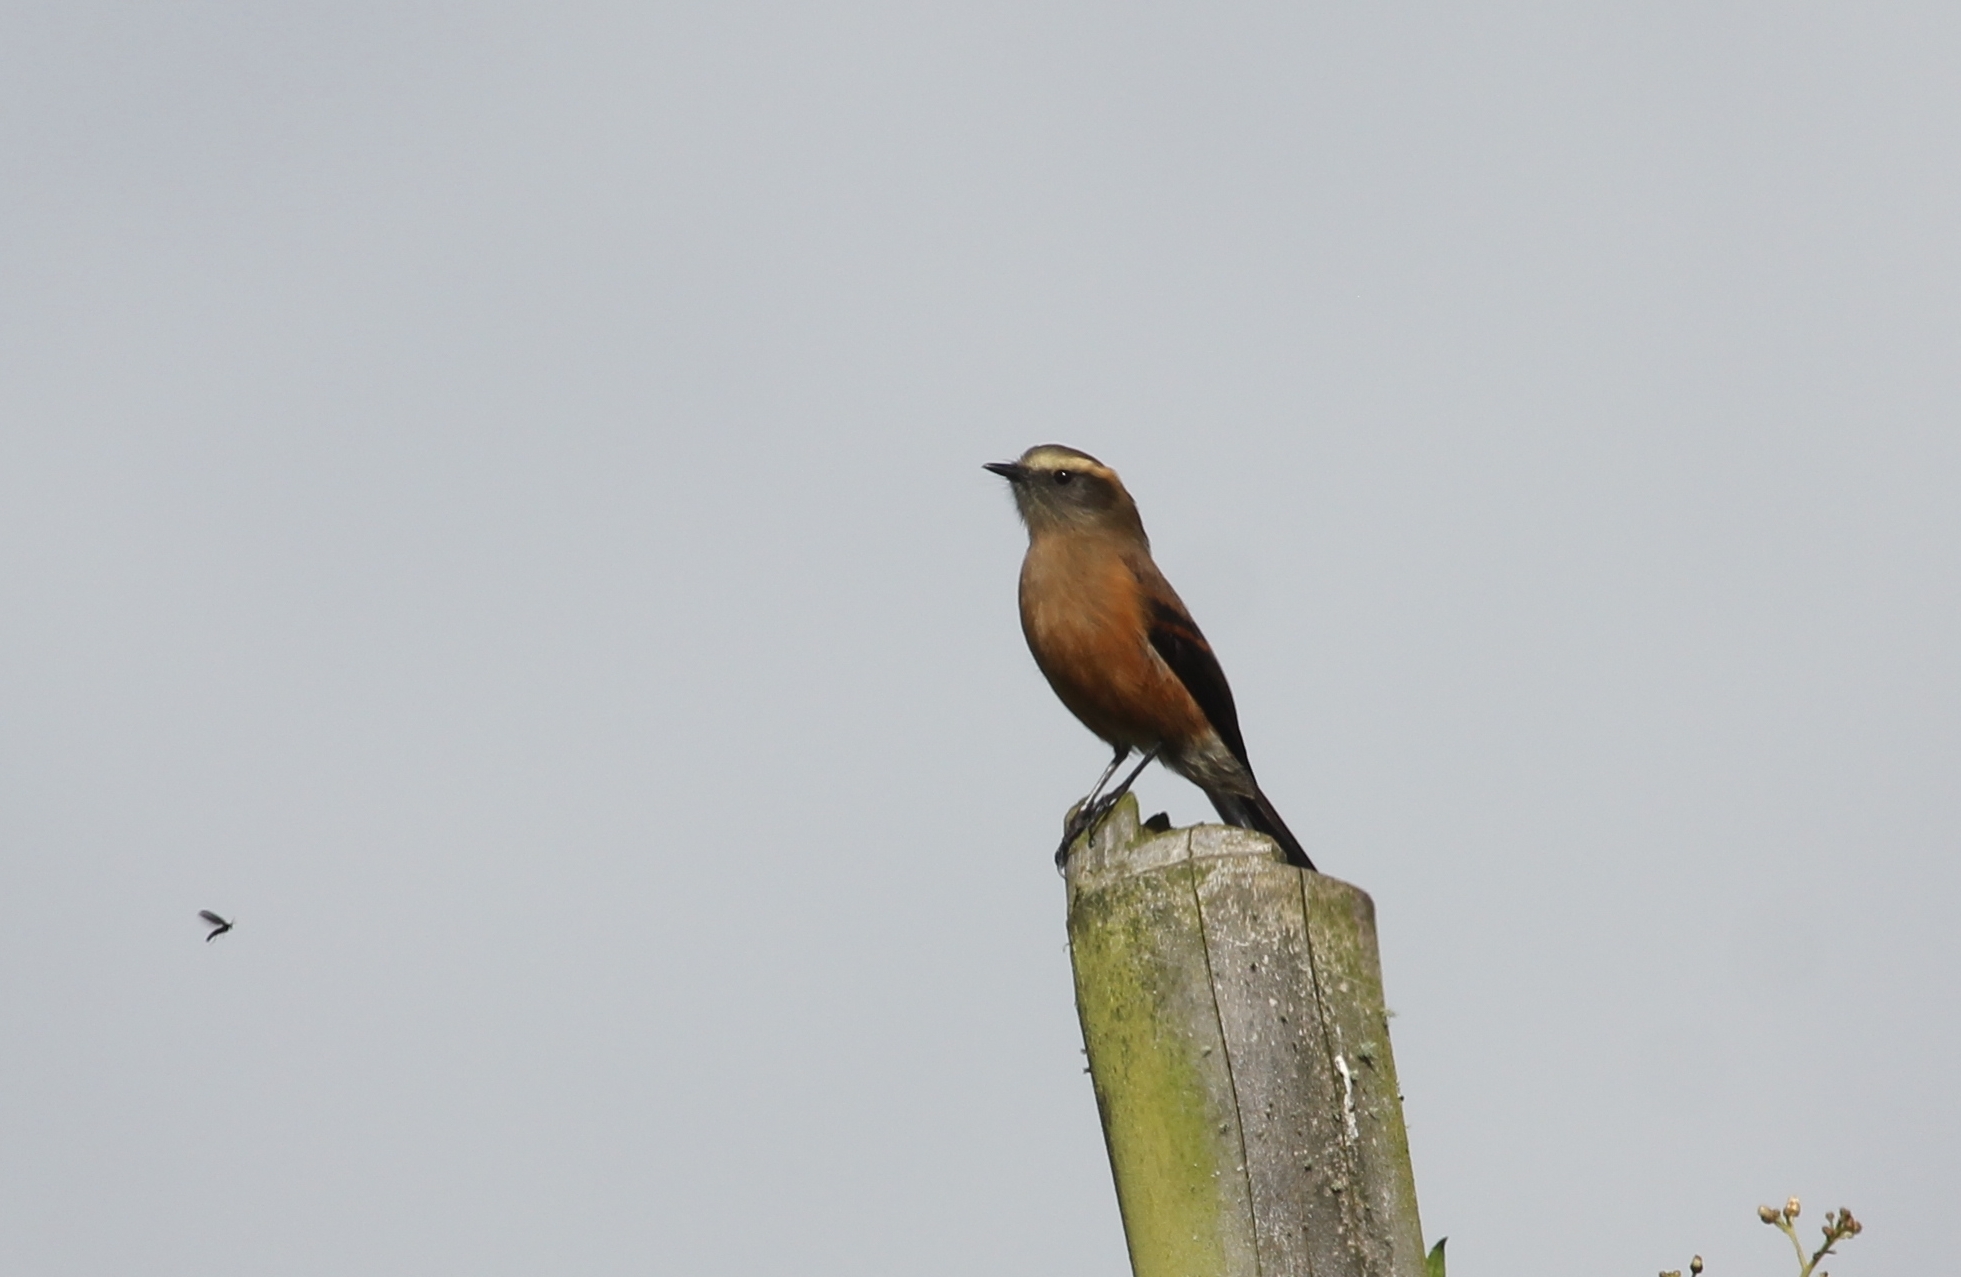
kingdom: Animalia
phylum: Chordata
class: Aves
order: Passeriformes
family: Tyrannidae
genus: Ochthoeca
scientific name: Ochthoeca fumicolor
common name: Brown-backed chat-tyrant
